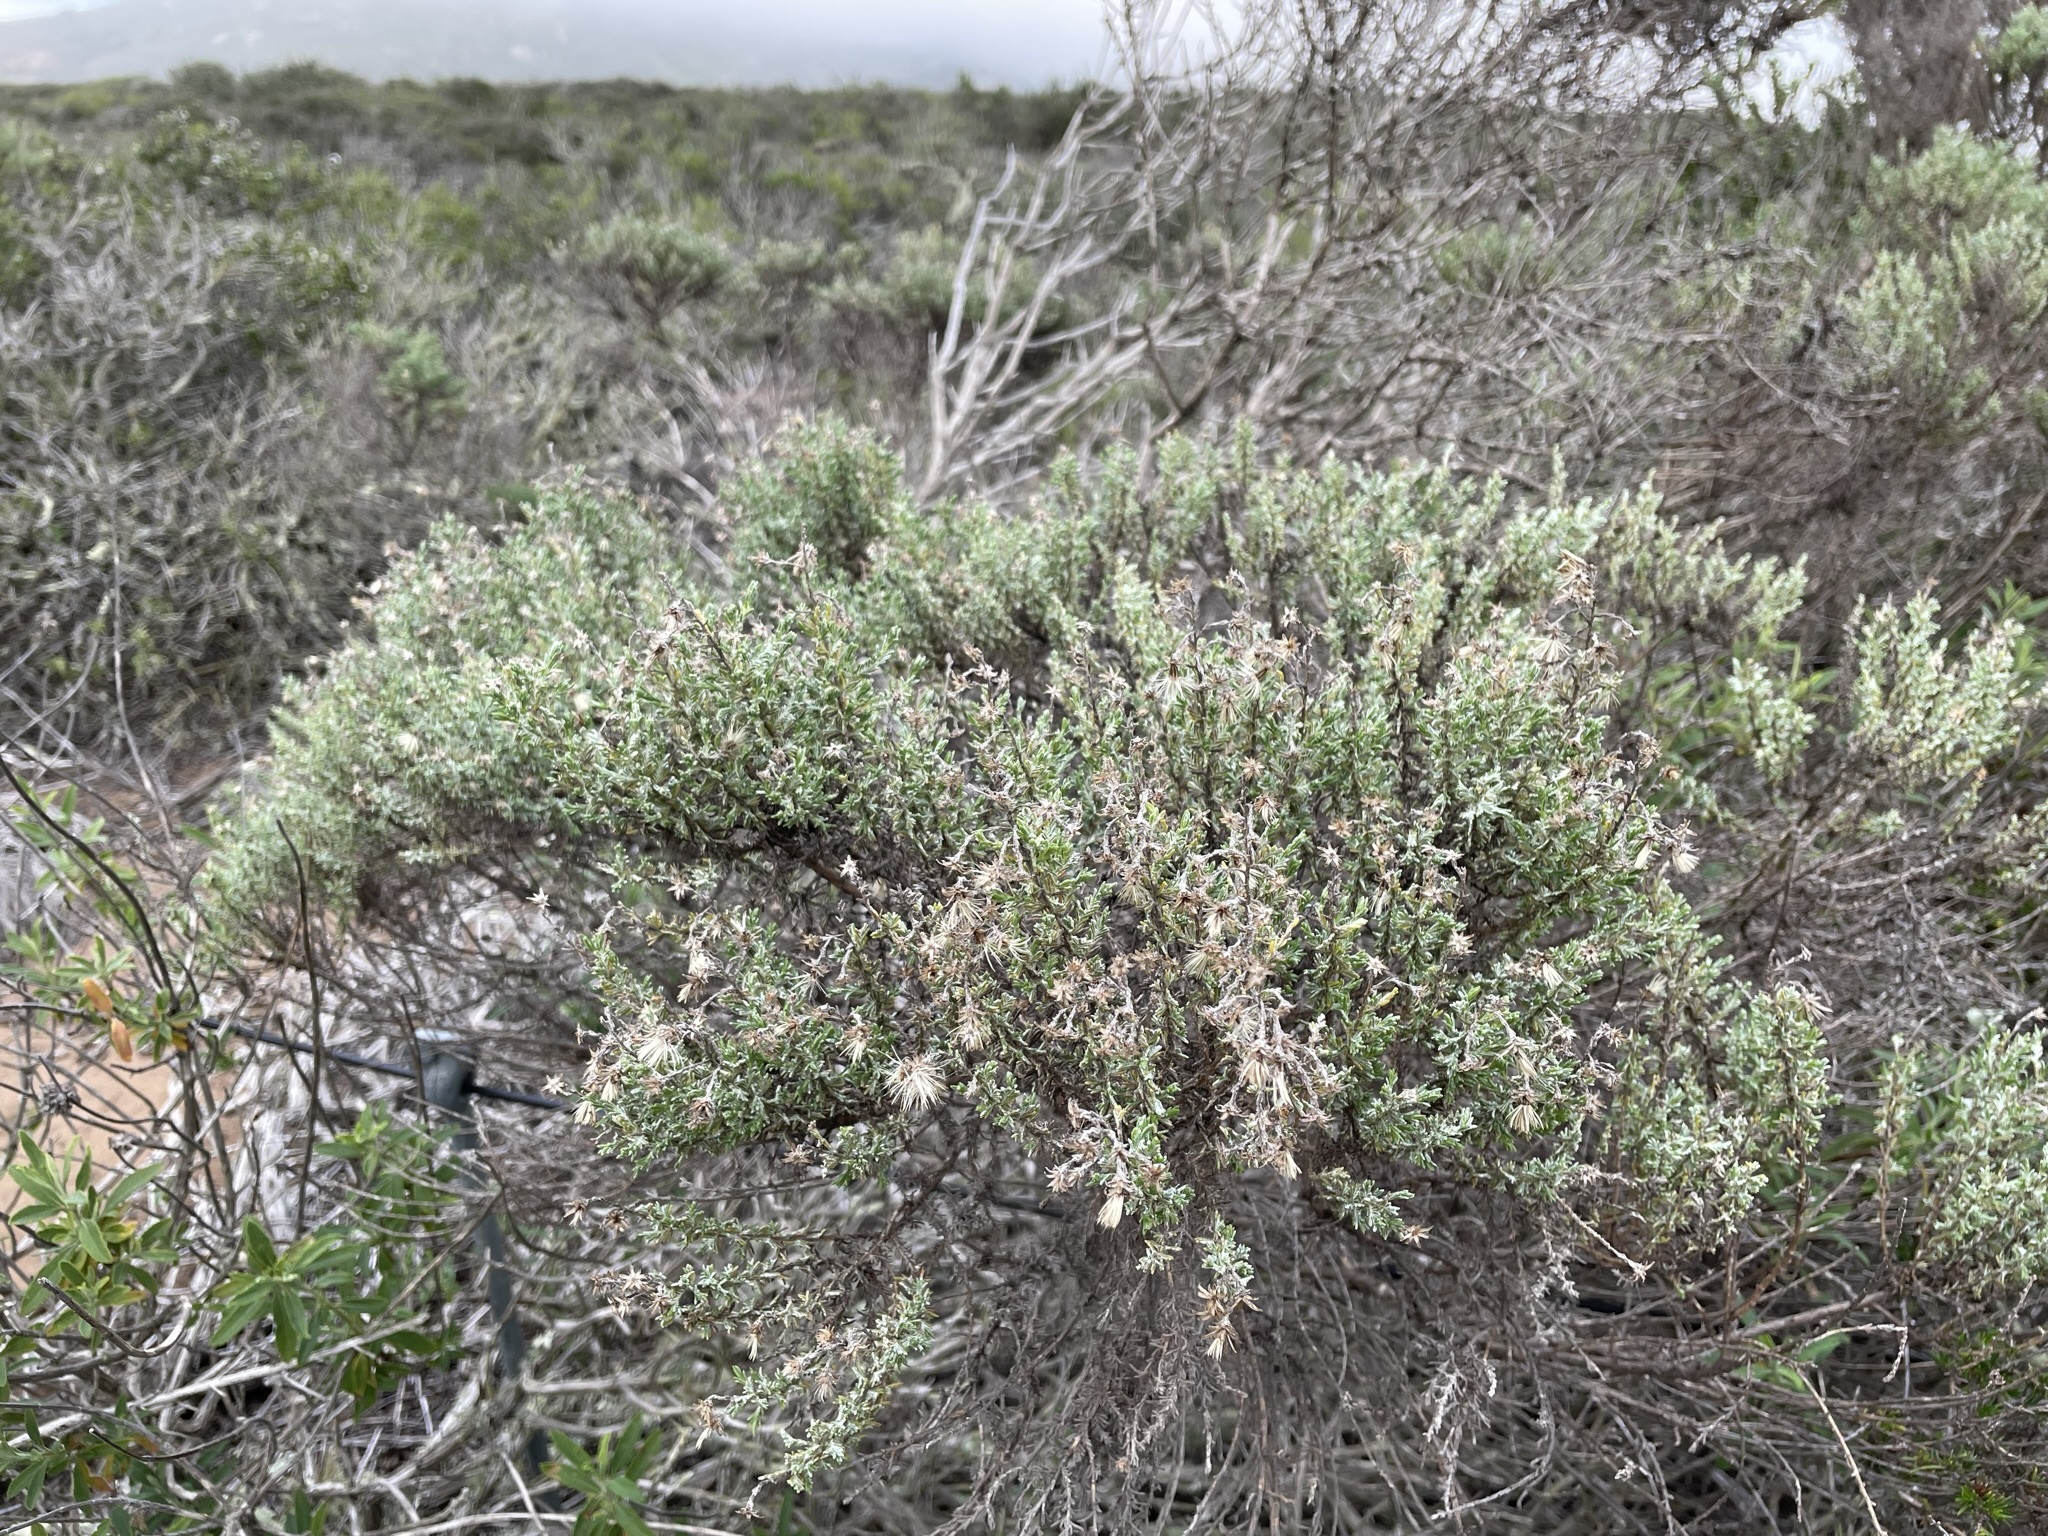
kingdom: Plantae
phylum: Tracheophyta
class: Magnoliopsida
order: Asterales
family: Asteraceae
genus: Ericameria
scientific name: Ericameria ericoides
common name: California goldenbush
